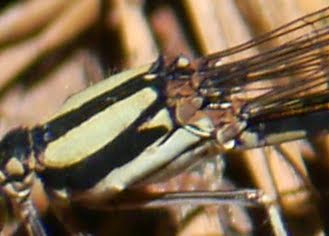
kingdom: Animalia
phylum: Arthropoda
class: Insecta
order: Odonata
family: Coenagrionidae
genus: Argia
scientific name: Argia tibialis
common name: Blue-tipped dancer
